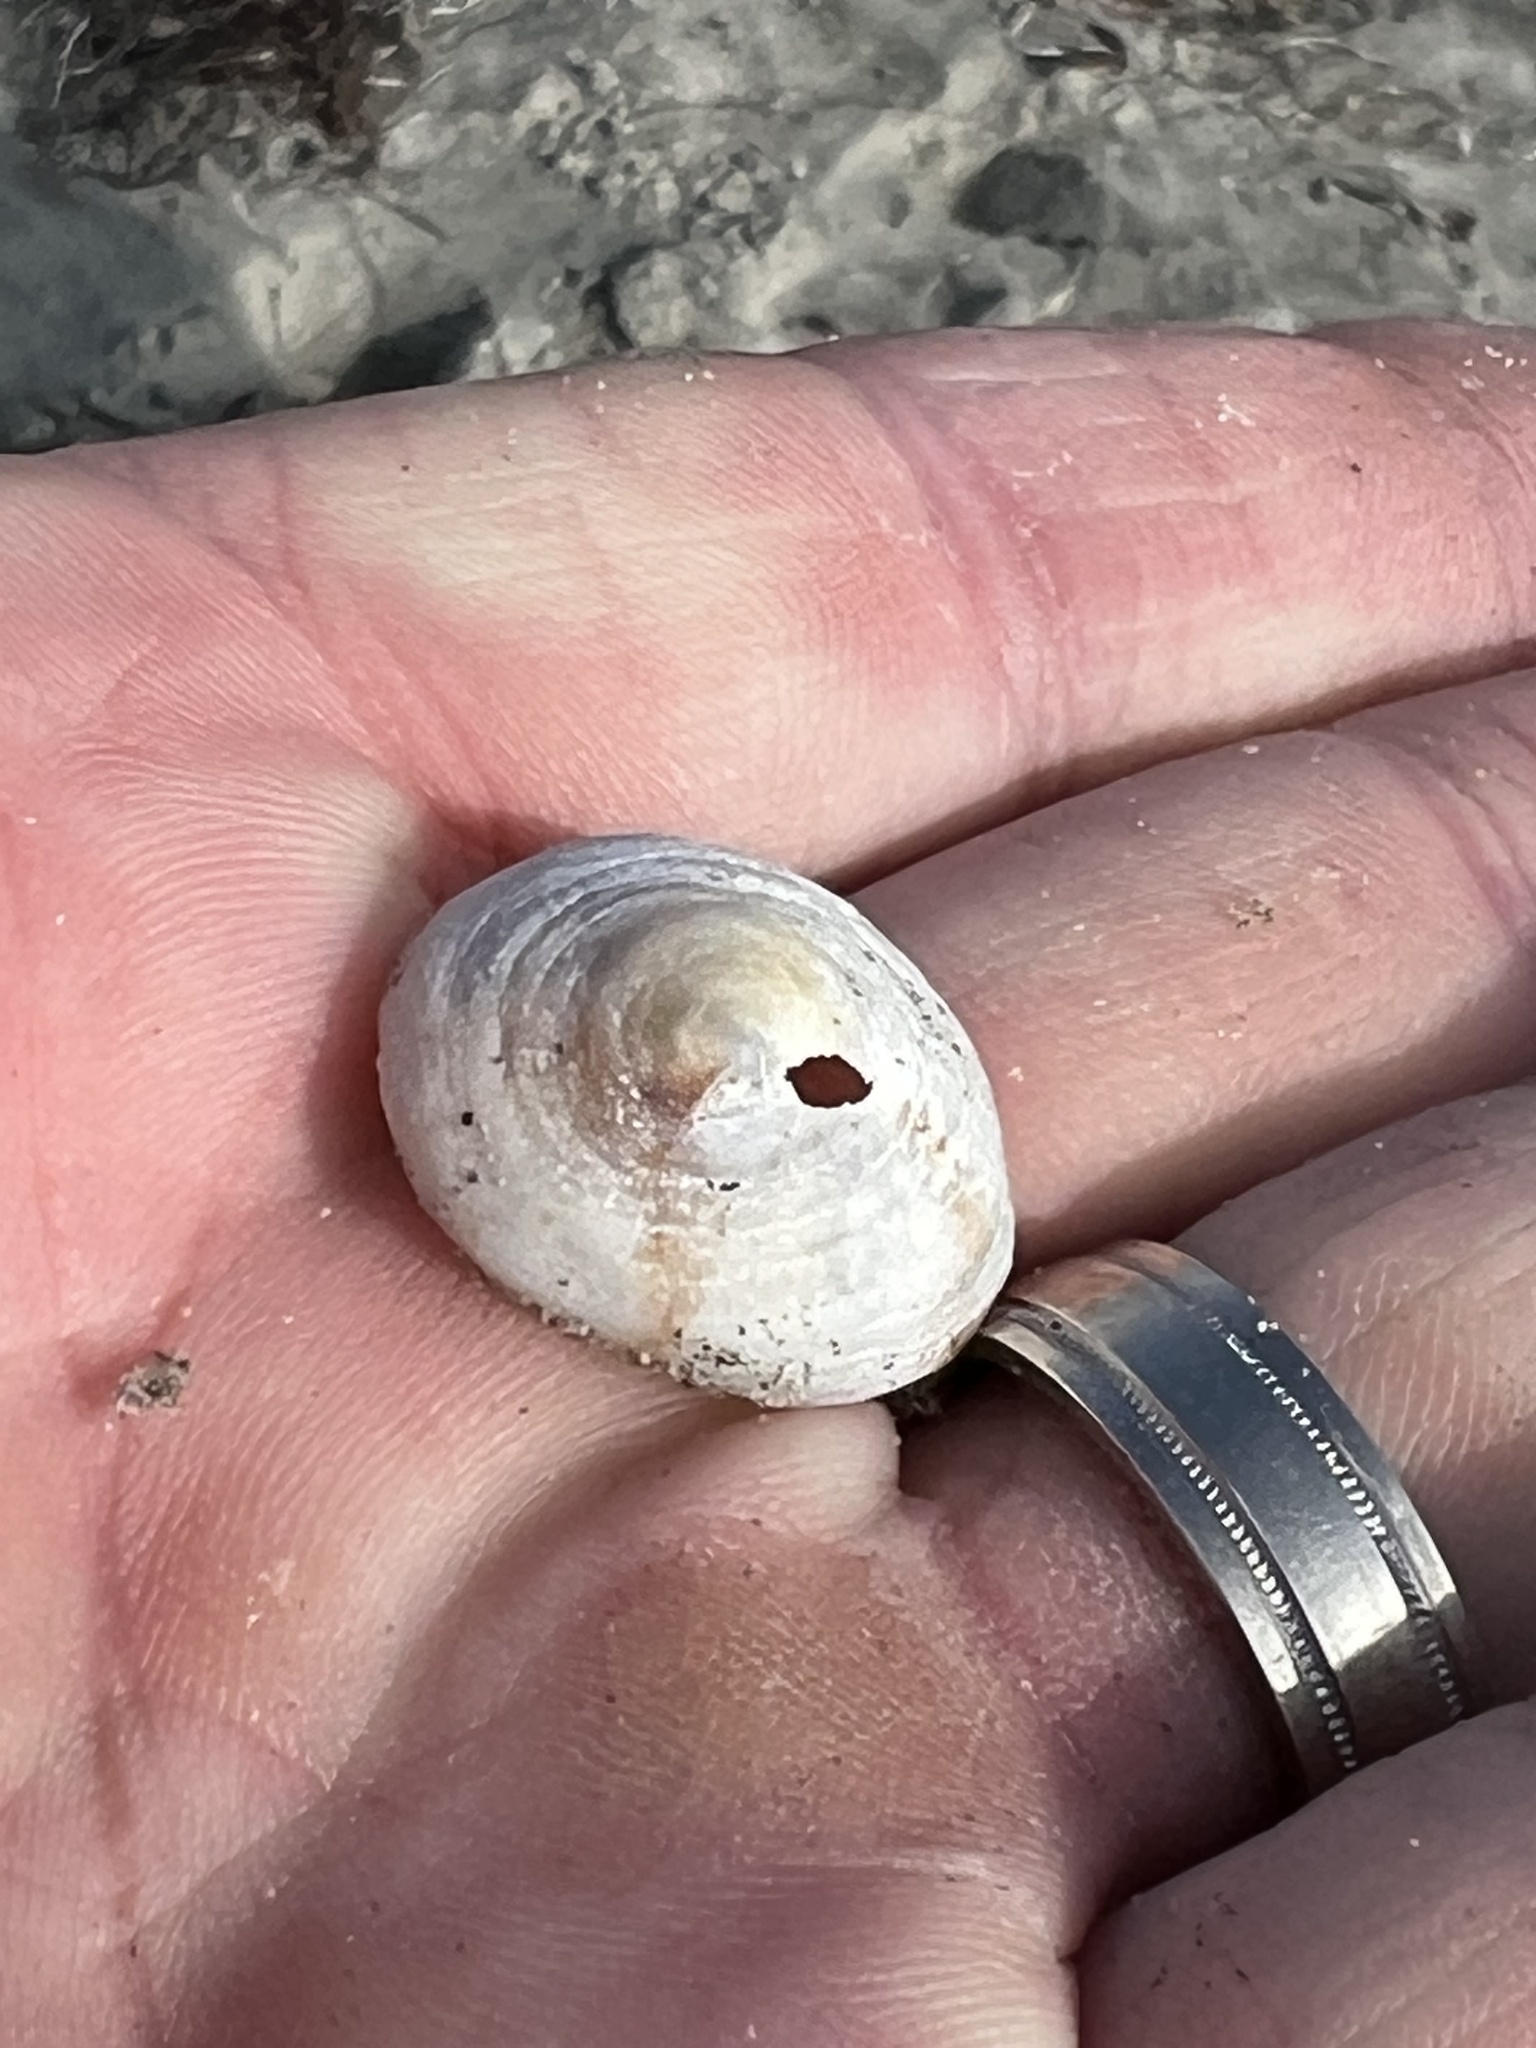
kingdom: Animalia
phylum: Mollusca
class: Gastropoda
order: Littorinimorpha
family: Calyptraeidae
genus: Crucibulum
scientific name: Crucibulum spinosum
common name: Spiny cup-and-saucer
